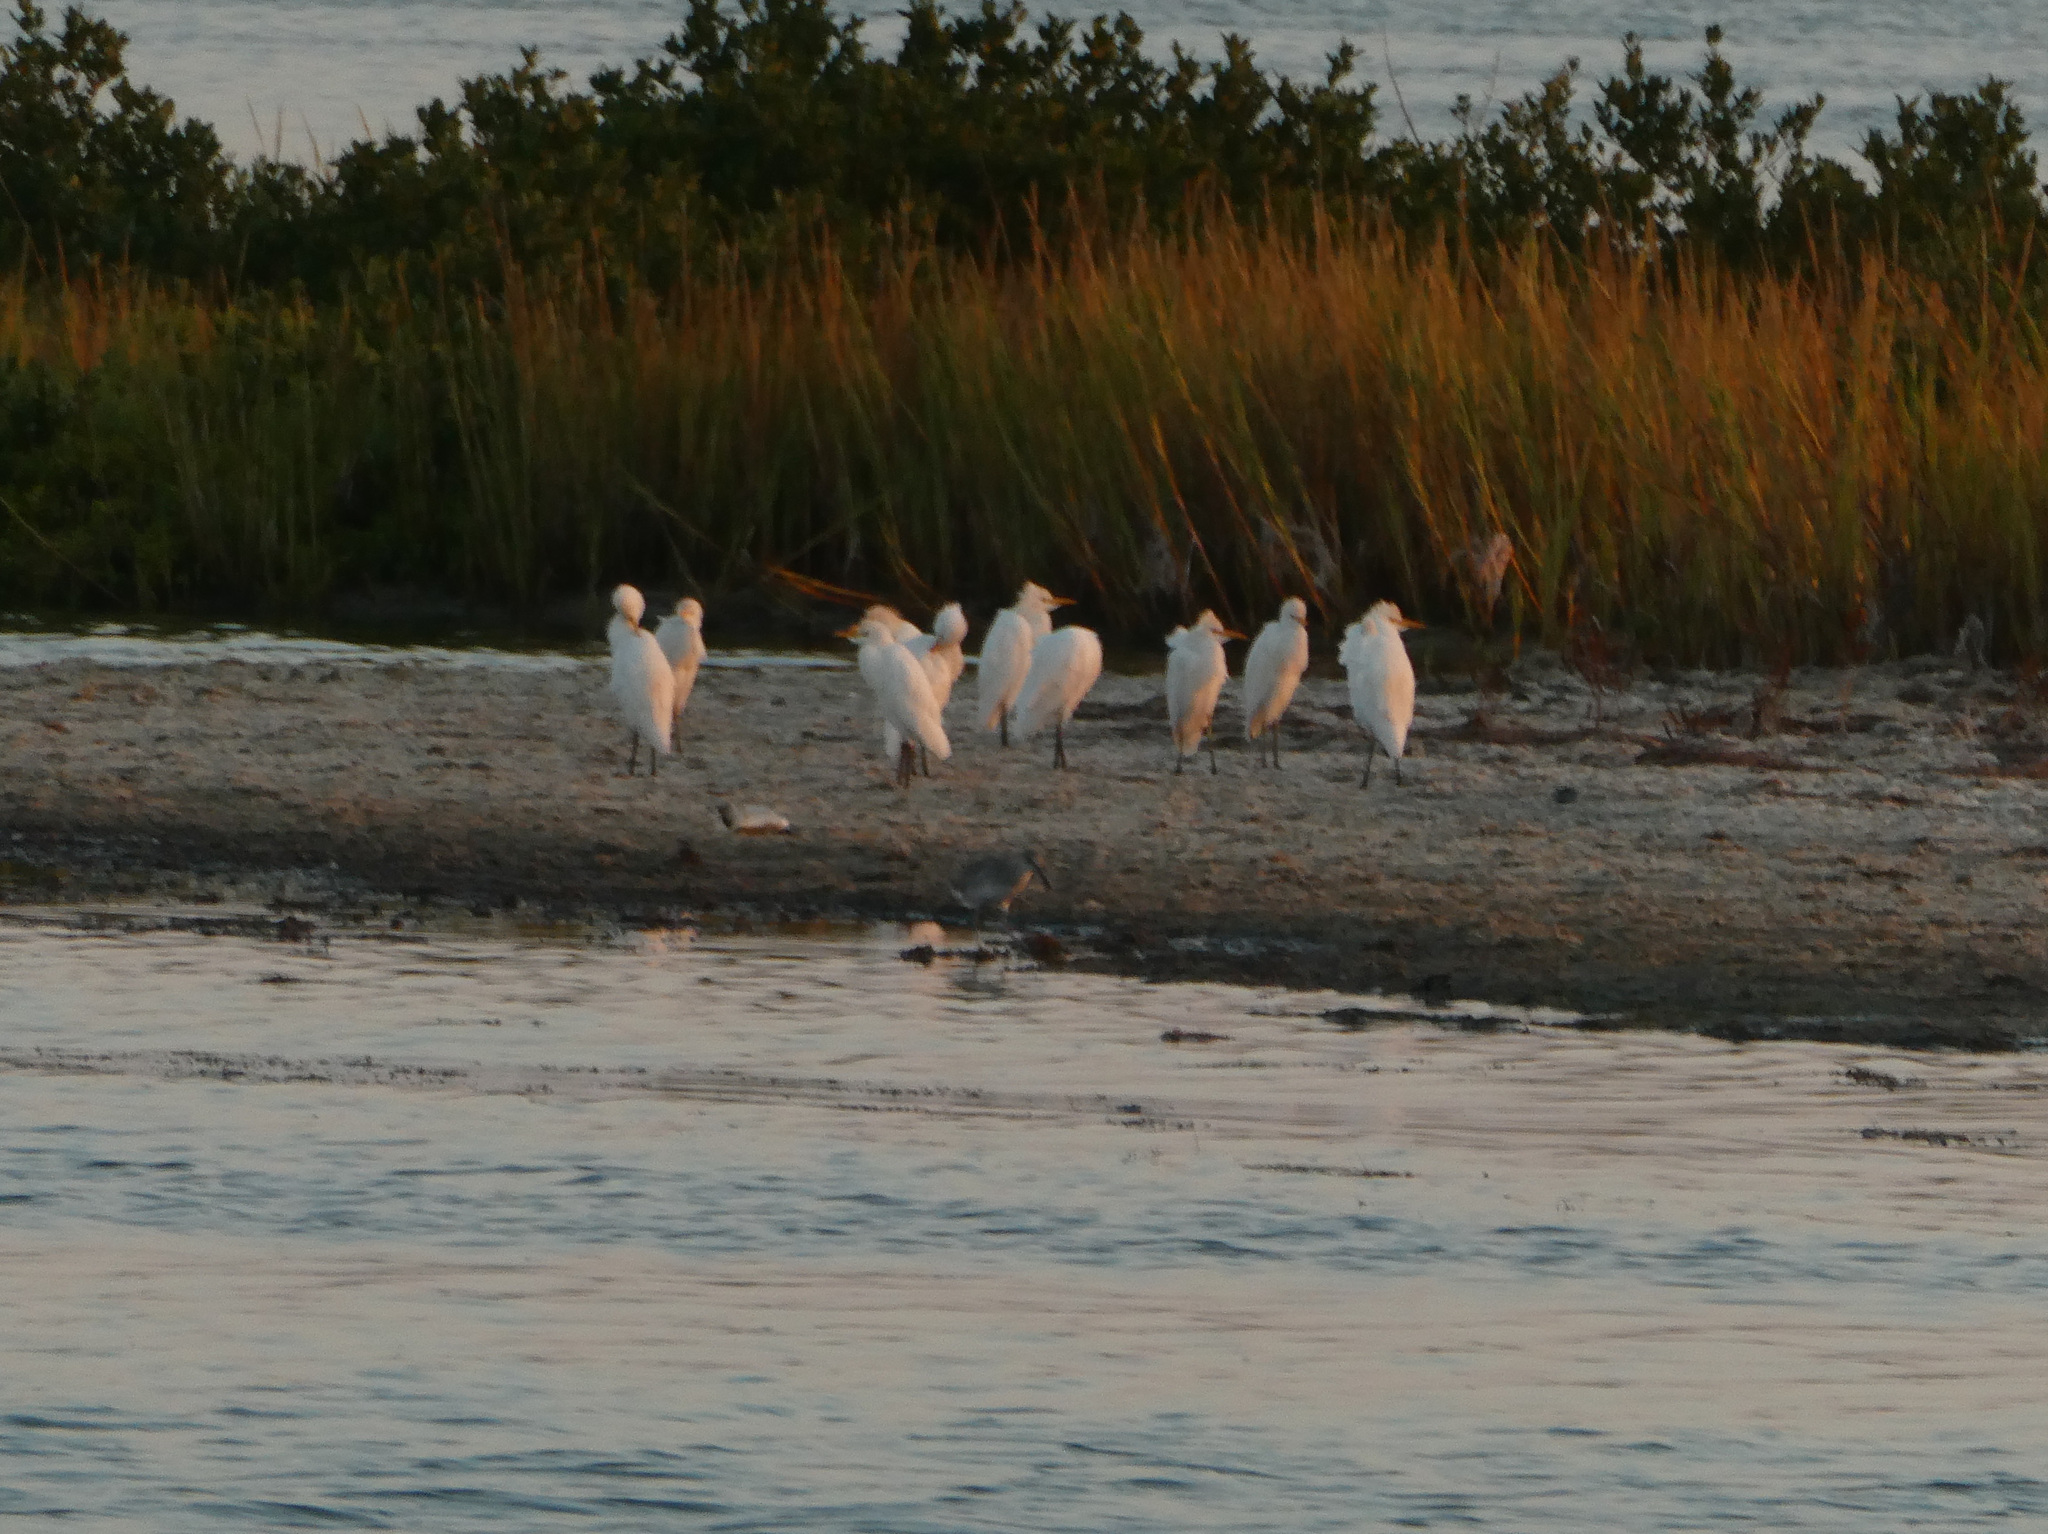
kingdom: Animalia
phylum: Chordata
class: Aves
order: Pelecaniformes
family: Ardeidae
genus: Bubulcus
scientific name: Bubulcus ibis
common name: Cattle egret
